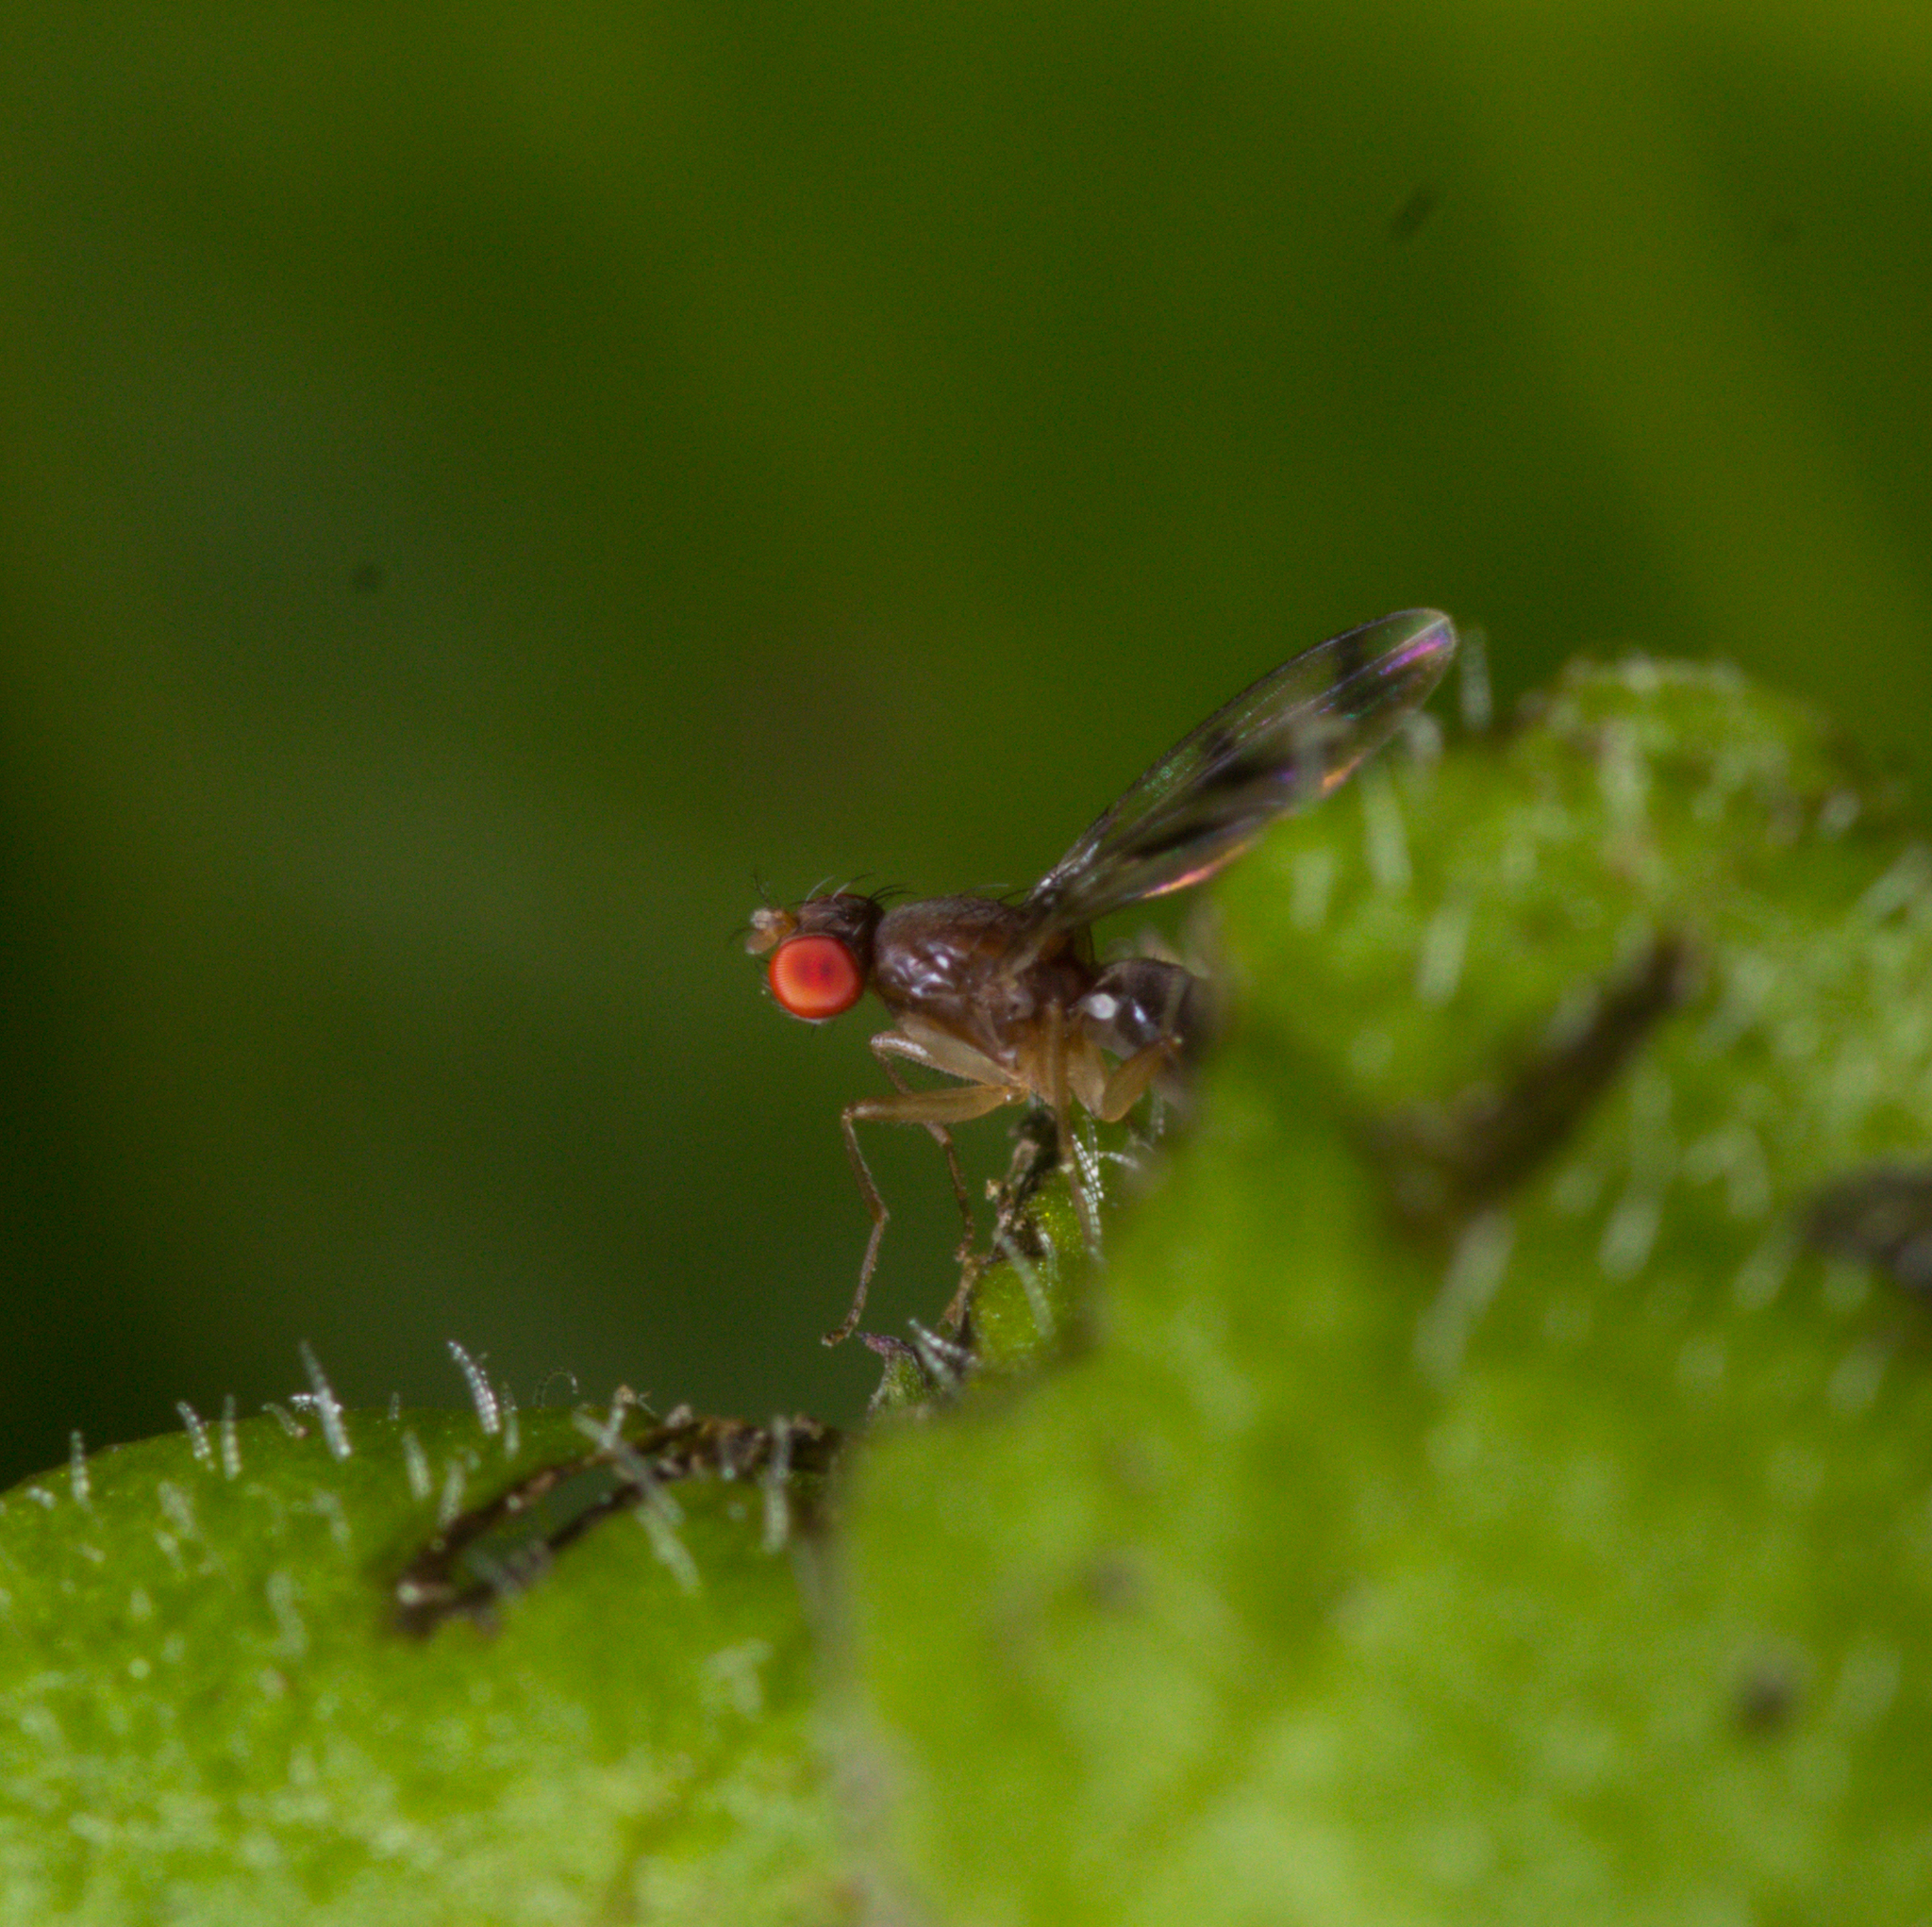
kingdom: Animalia
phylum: Arthropoda
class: Insecta
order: Diptera
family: Drosophilidae
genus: Chymomyza
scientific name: Chymomyza amoena
